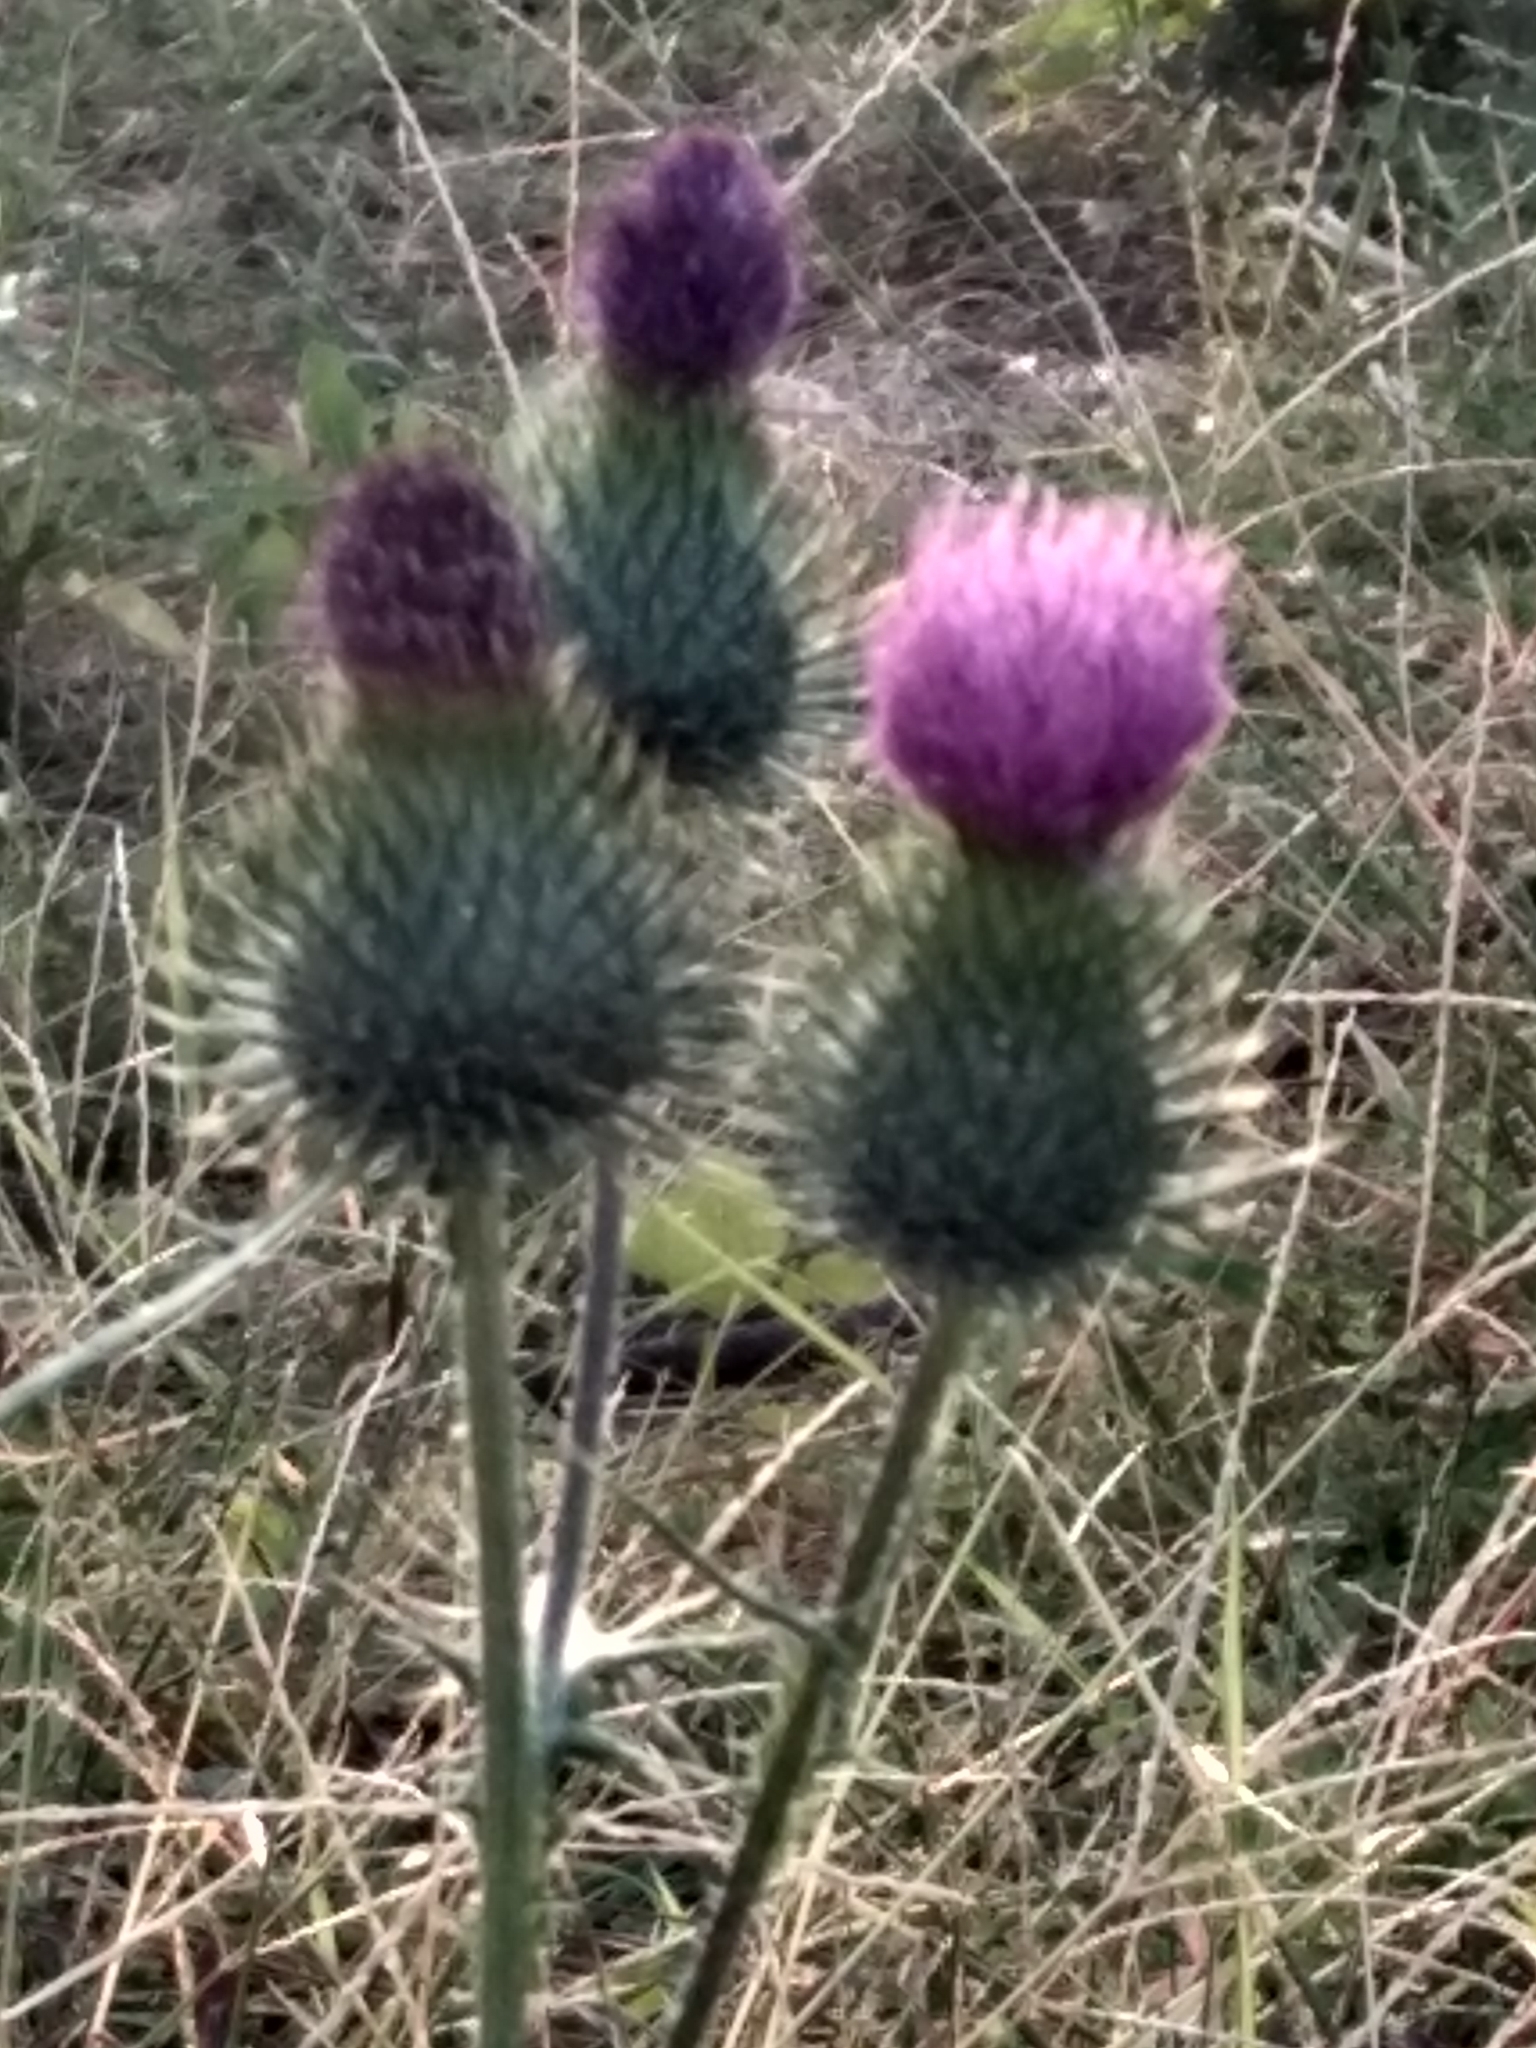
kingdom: Plantae
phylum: Tracheophyta
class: Magnoliopsida
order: Asterales
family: Asteraceae
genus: Cirsium
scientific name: Cirsium vulgare
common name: Bull thistle
